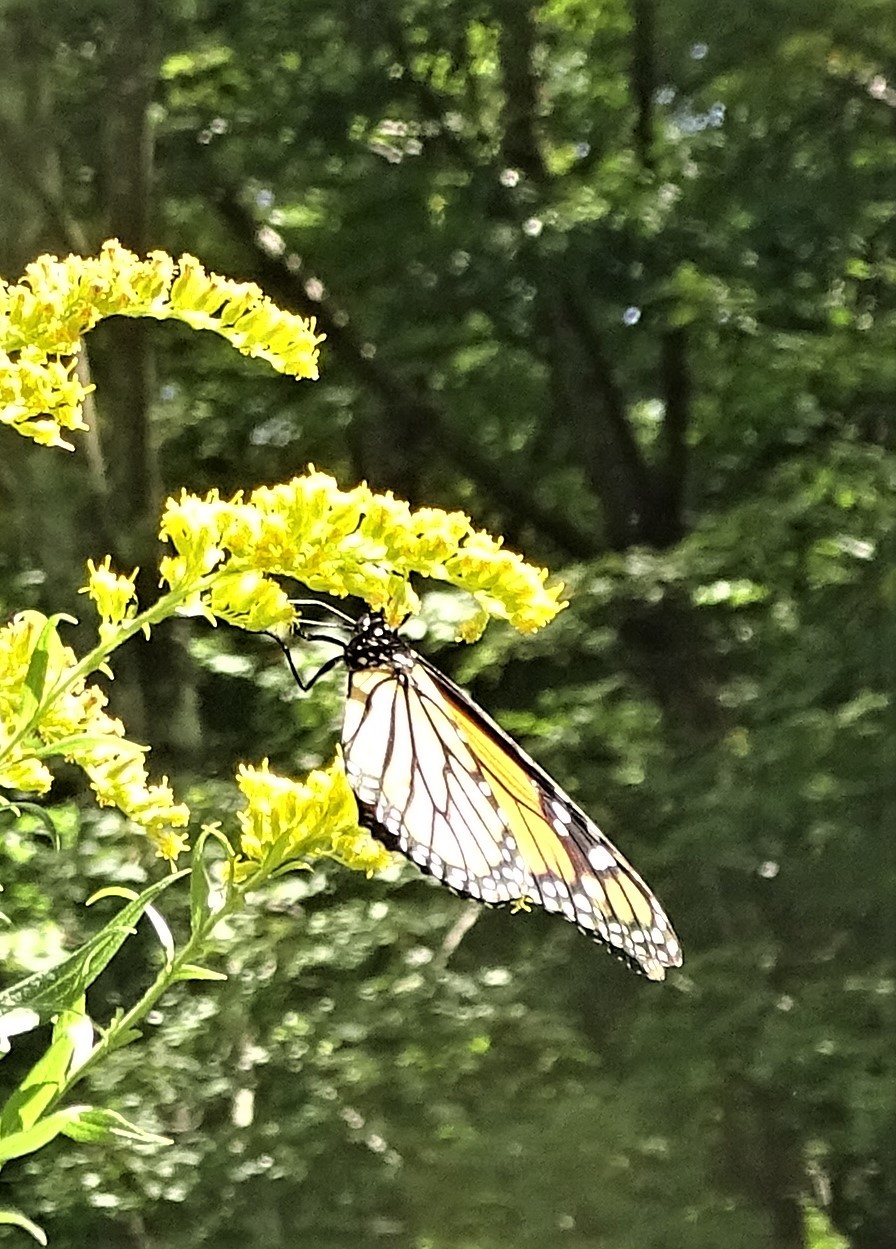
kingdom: Animalia
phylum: Arthropoda
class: Insecta
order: Lepidoptera
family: Nymphalidae
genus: Danaus
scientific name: Danaus plexippus
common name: Monarch
